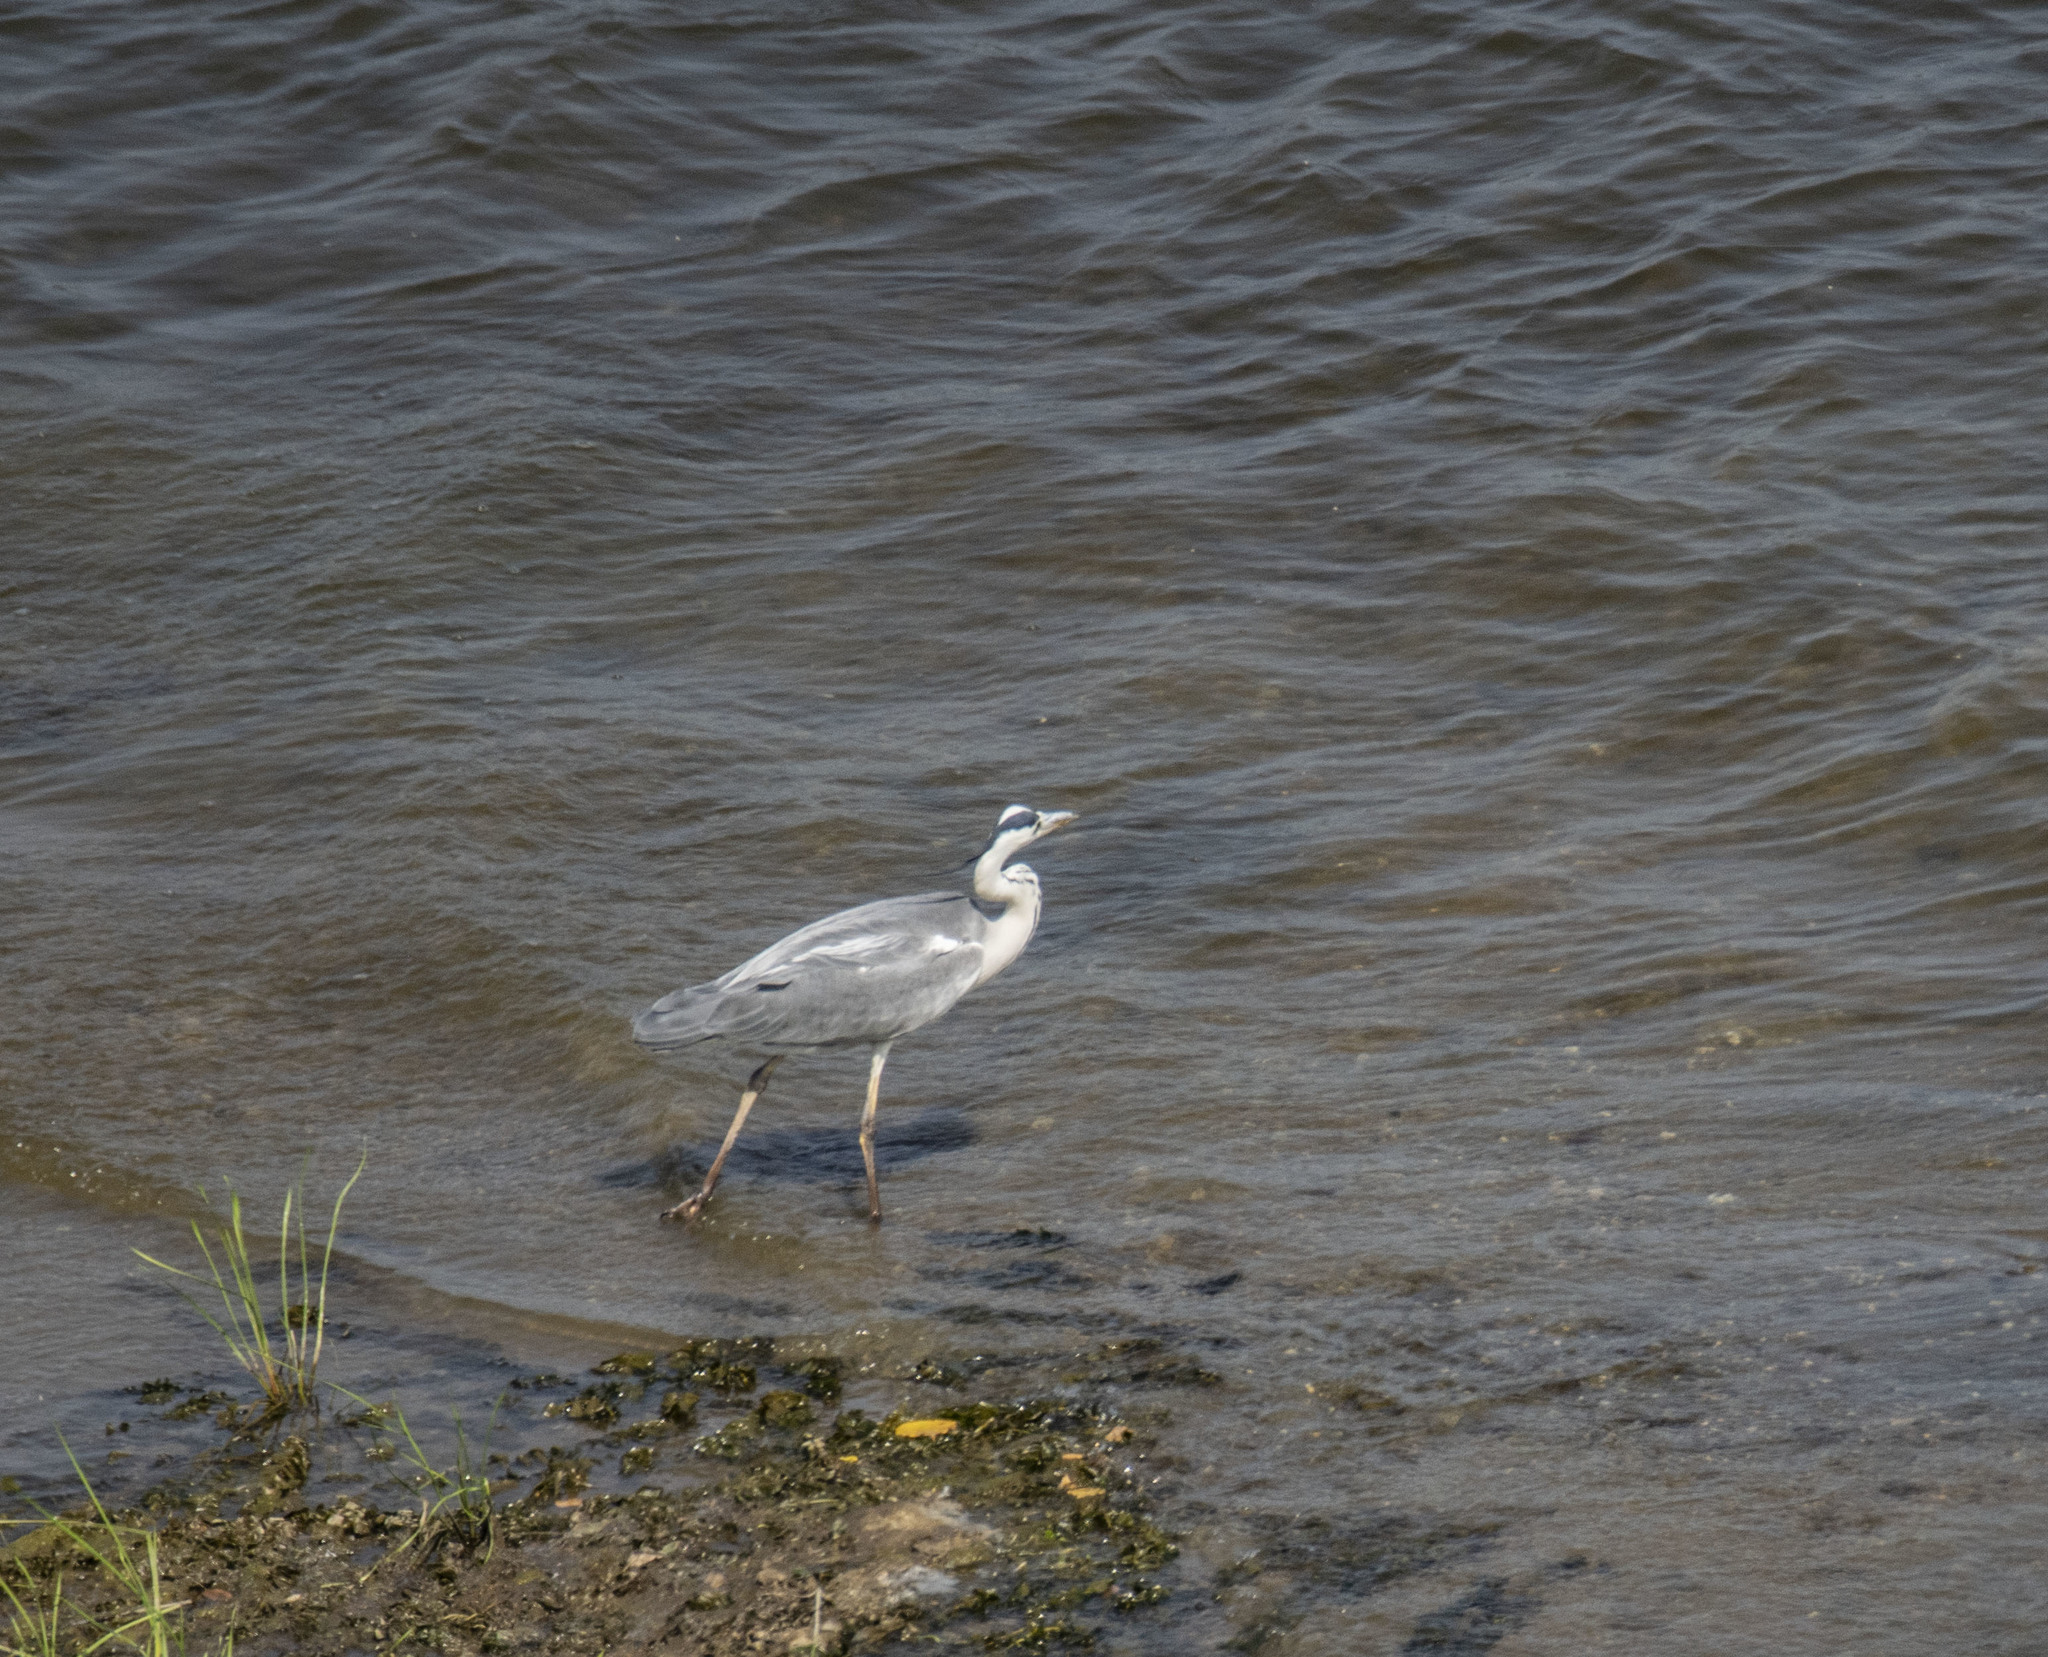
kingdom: Animalia
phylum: Chordata
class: Aves
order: Pelecaniformes
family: Ardeidae
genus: Ardea
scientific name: Ardea cinerea
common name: Grey heron
